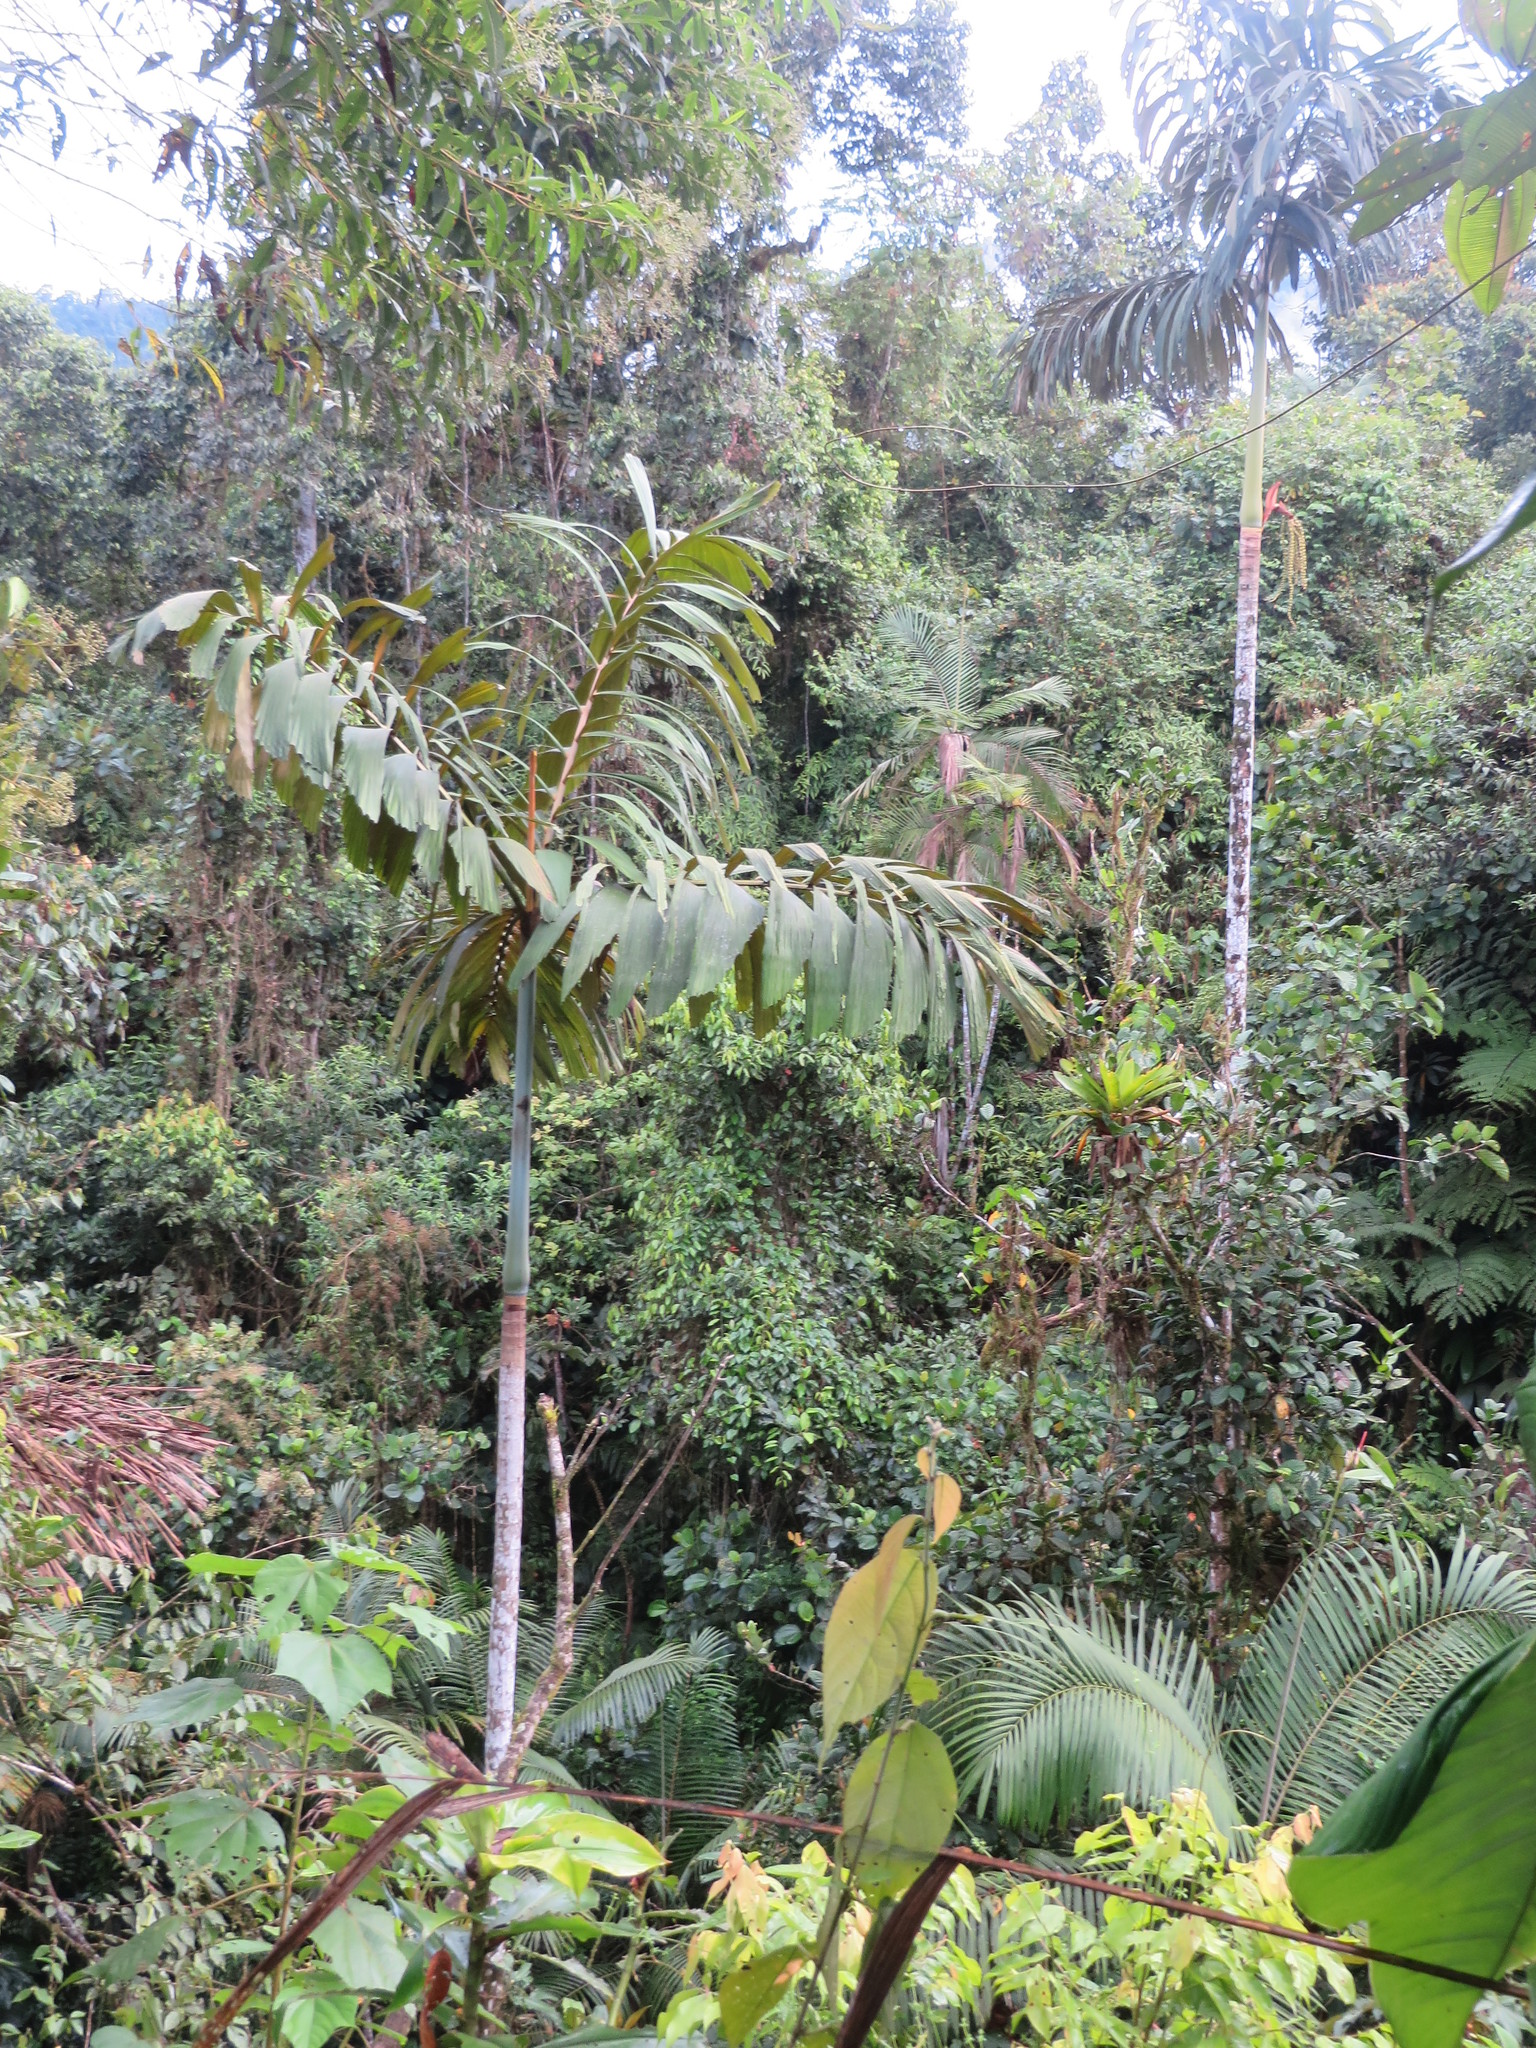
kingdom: Plantae
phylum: Tracheophyta
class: Liliopsida
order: Arecales
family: Arecaceae
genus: Socratea
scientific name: Socratea hecatonandra
